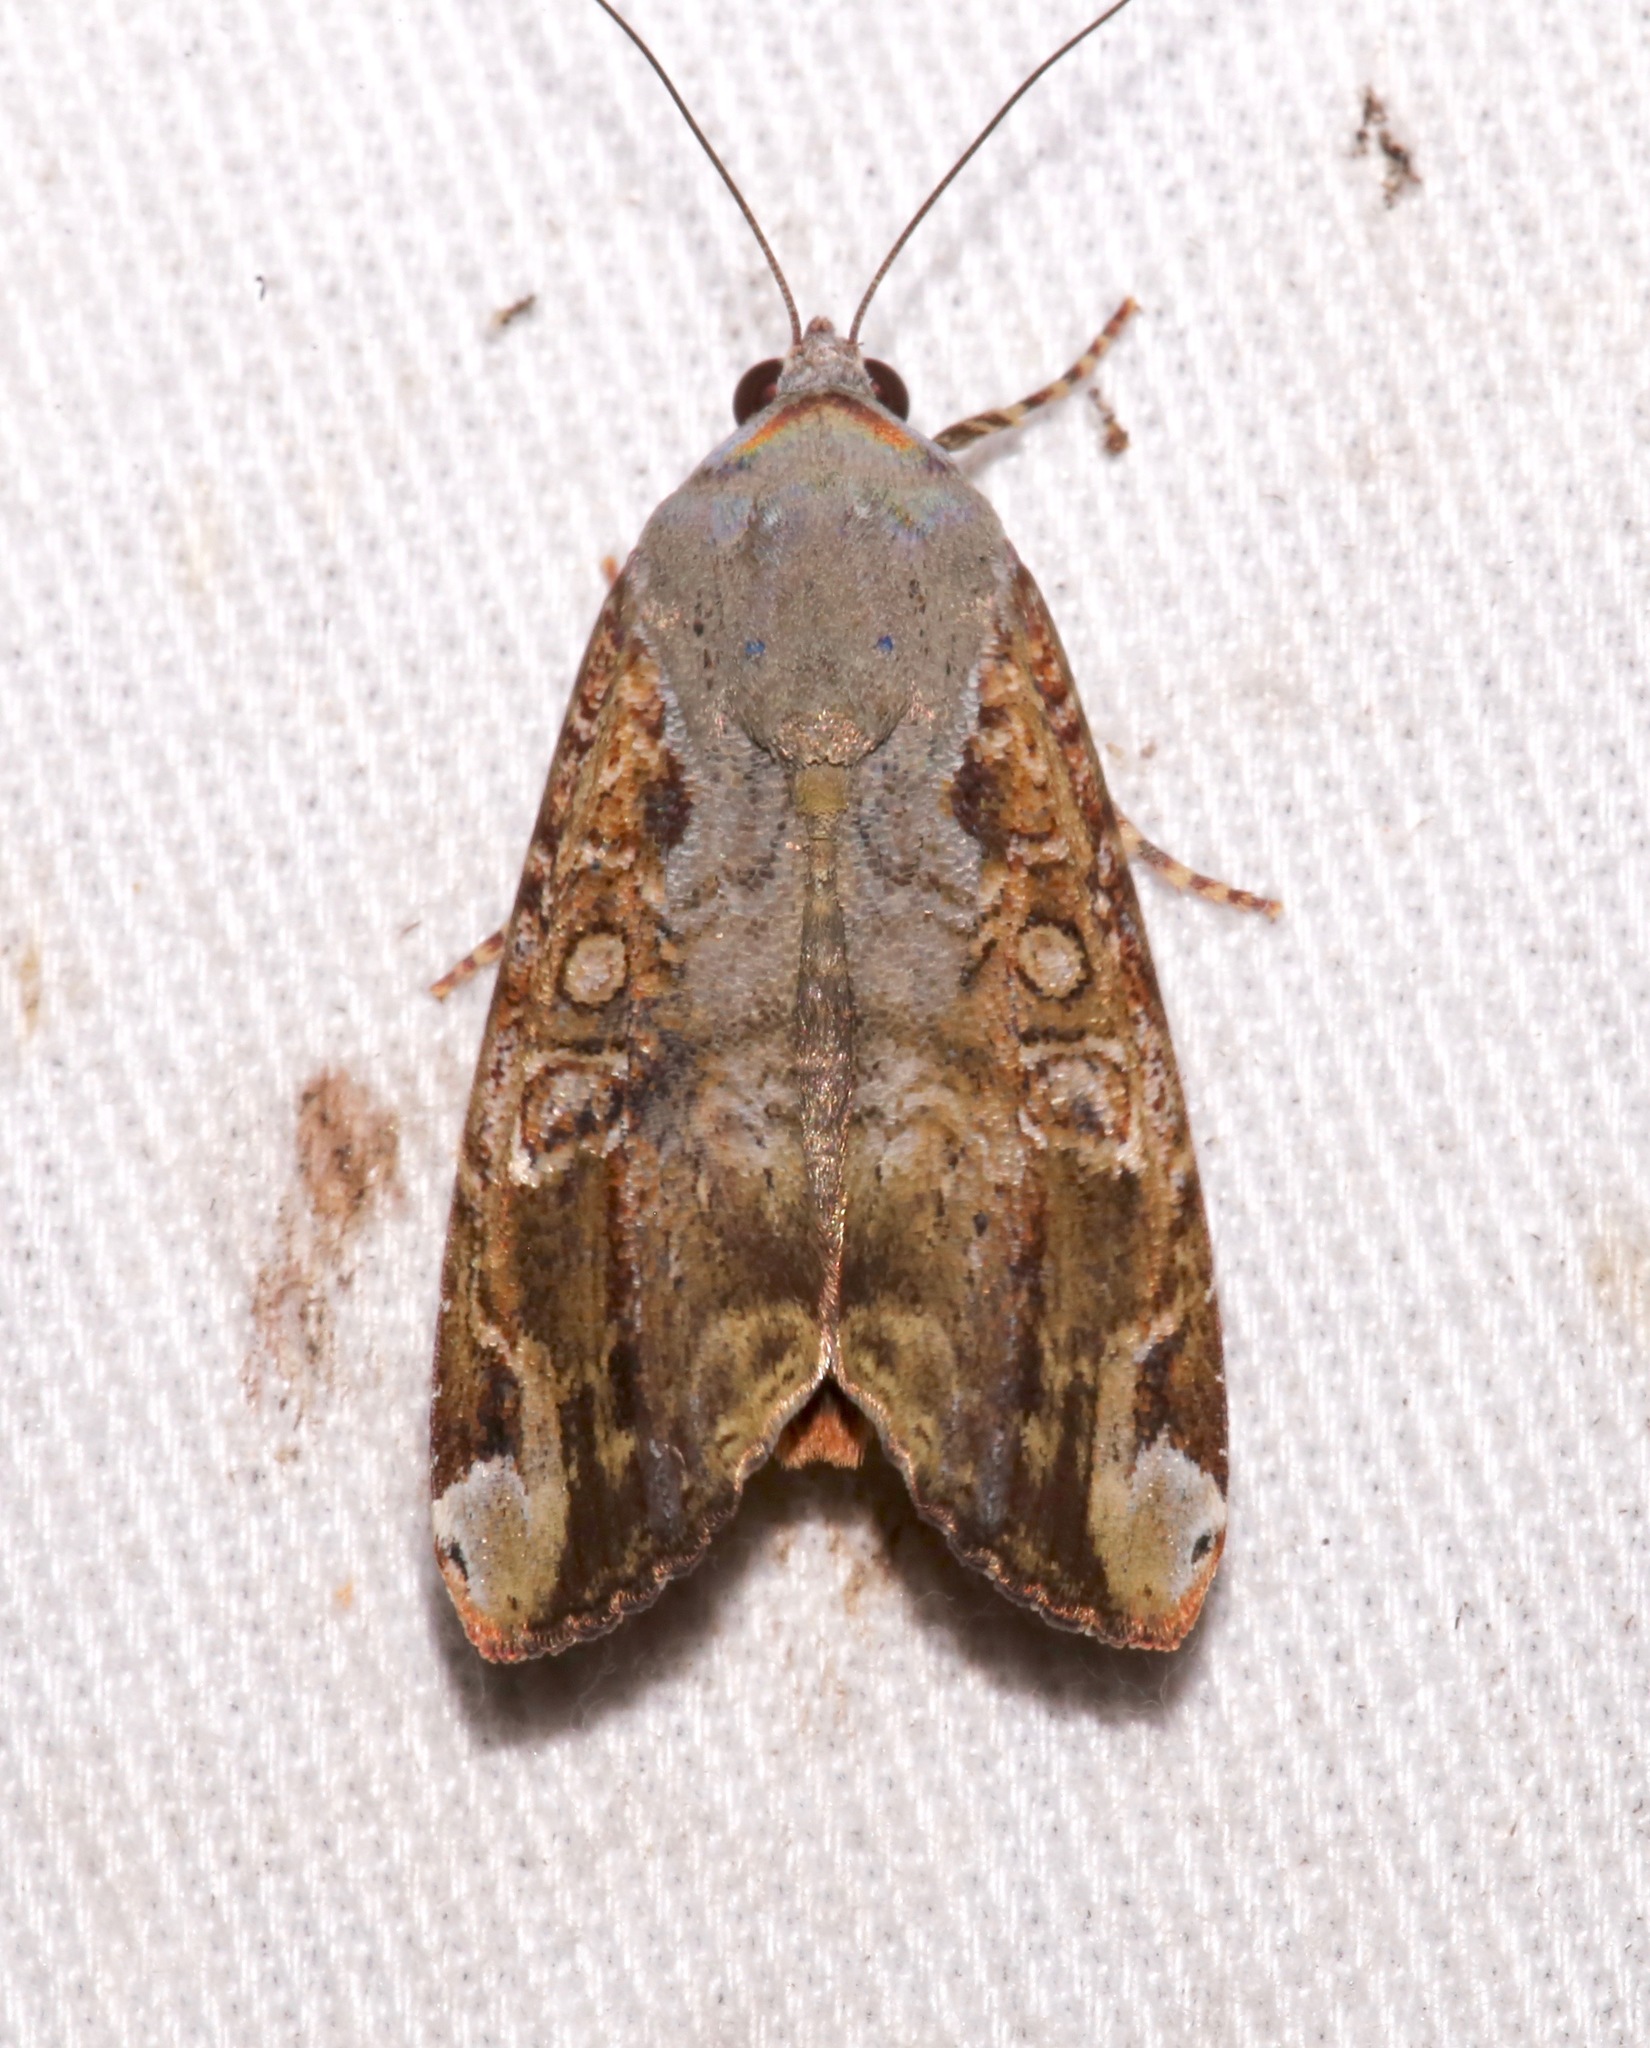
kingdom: Animalia
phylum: Arthropoda
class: Insecta
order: Lepidoptera
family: Noctuidae
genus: Magusa
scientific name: Magusa divaricata
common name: Orb narrow-winged moth
